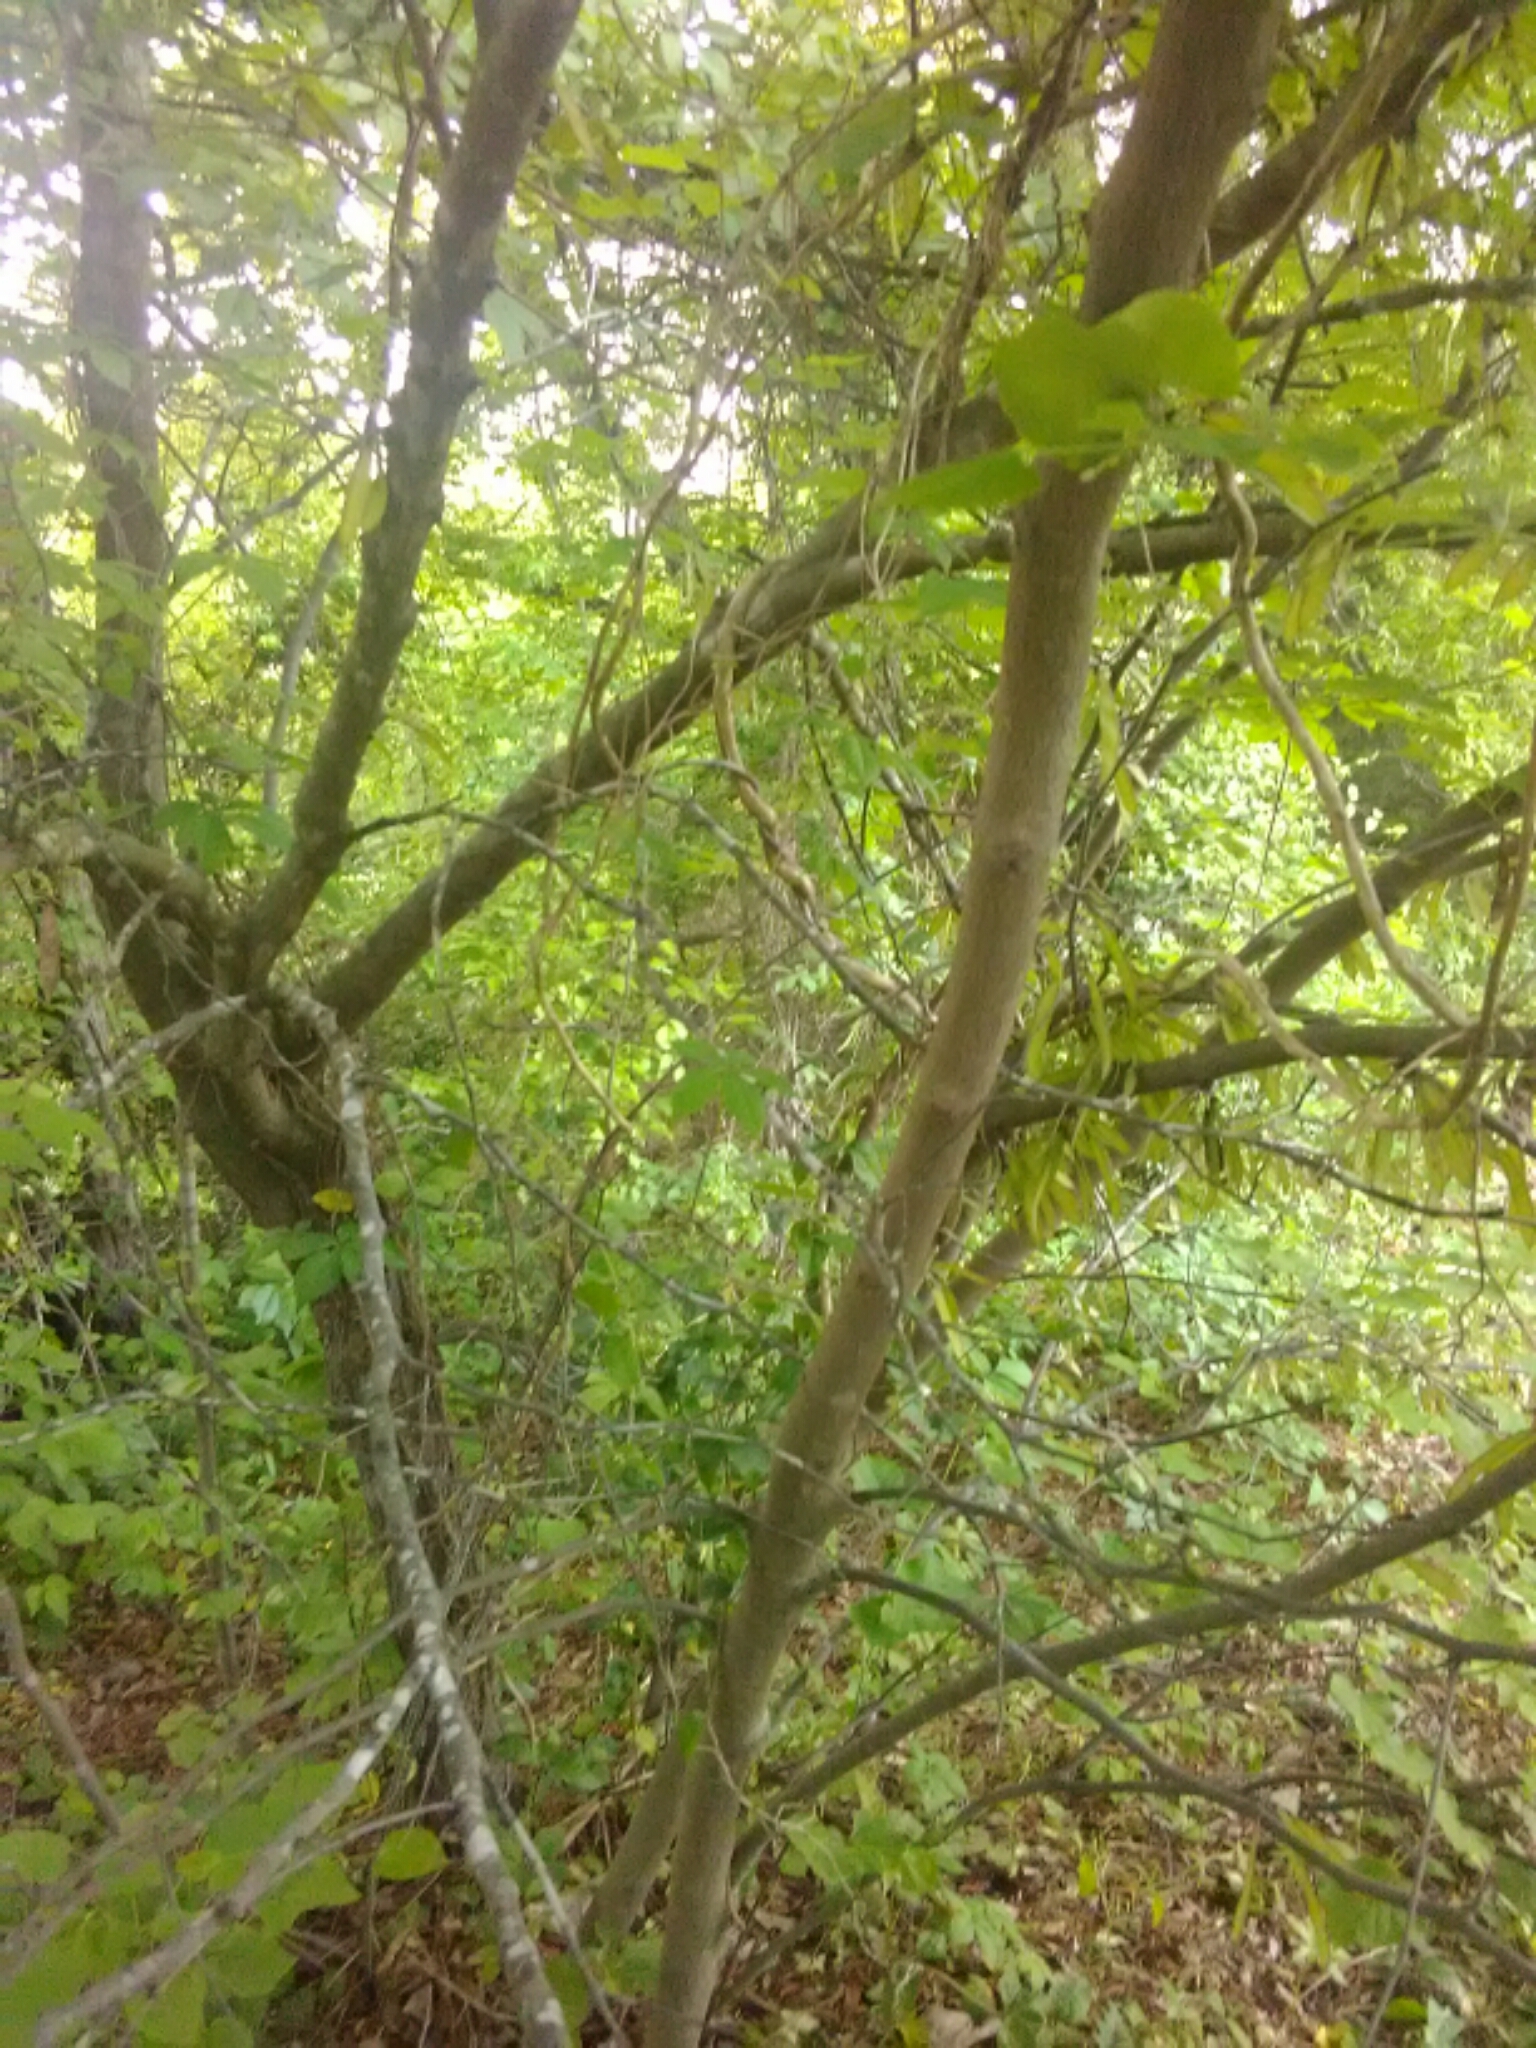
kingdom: Plantae
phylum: Tracheophyta
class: Magnoliopsida
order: Fabales
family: Fabaceae
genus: Cercis
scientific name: Cercis canadensis
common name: Eastern redbud
